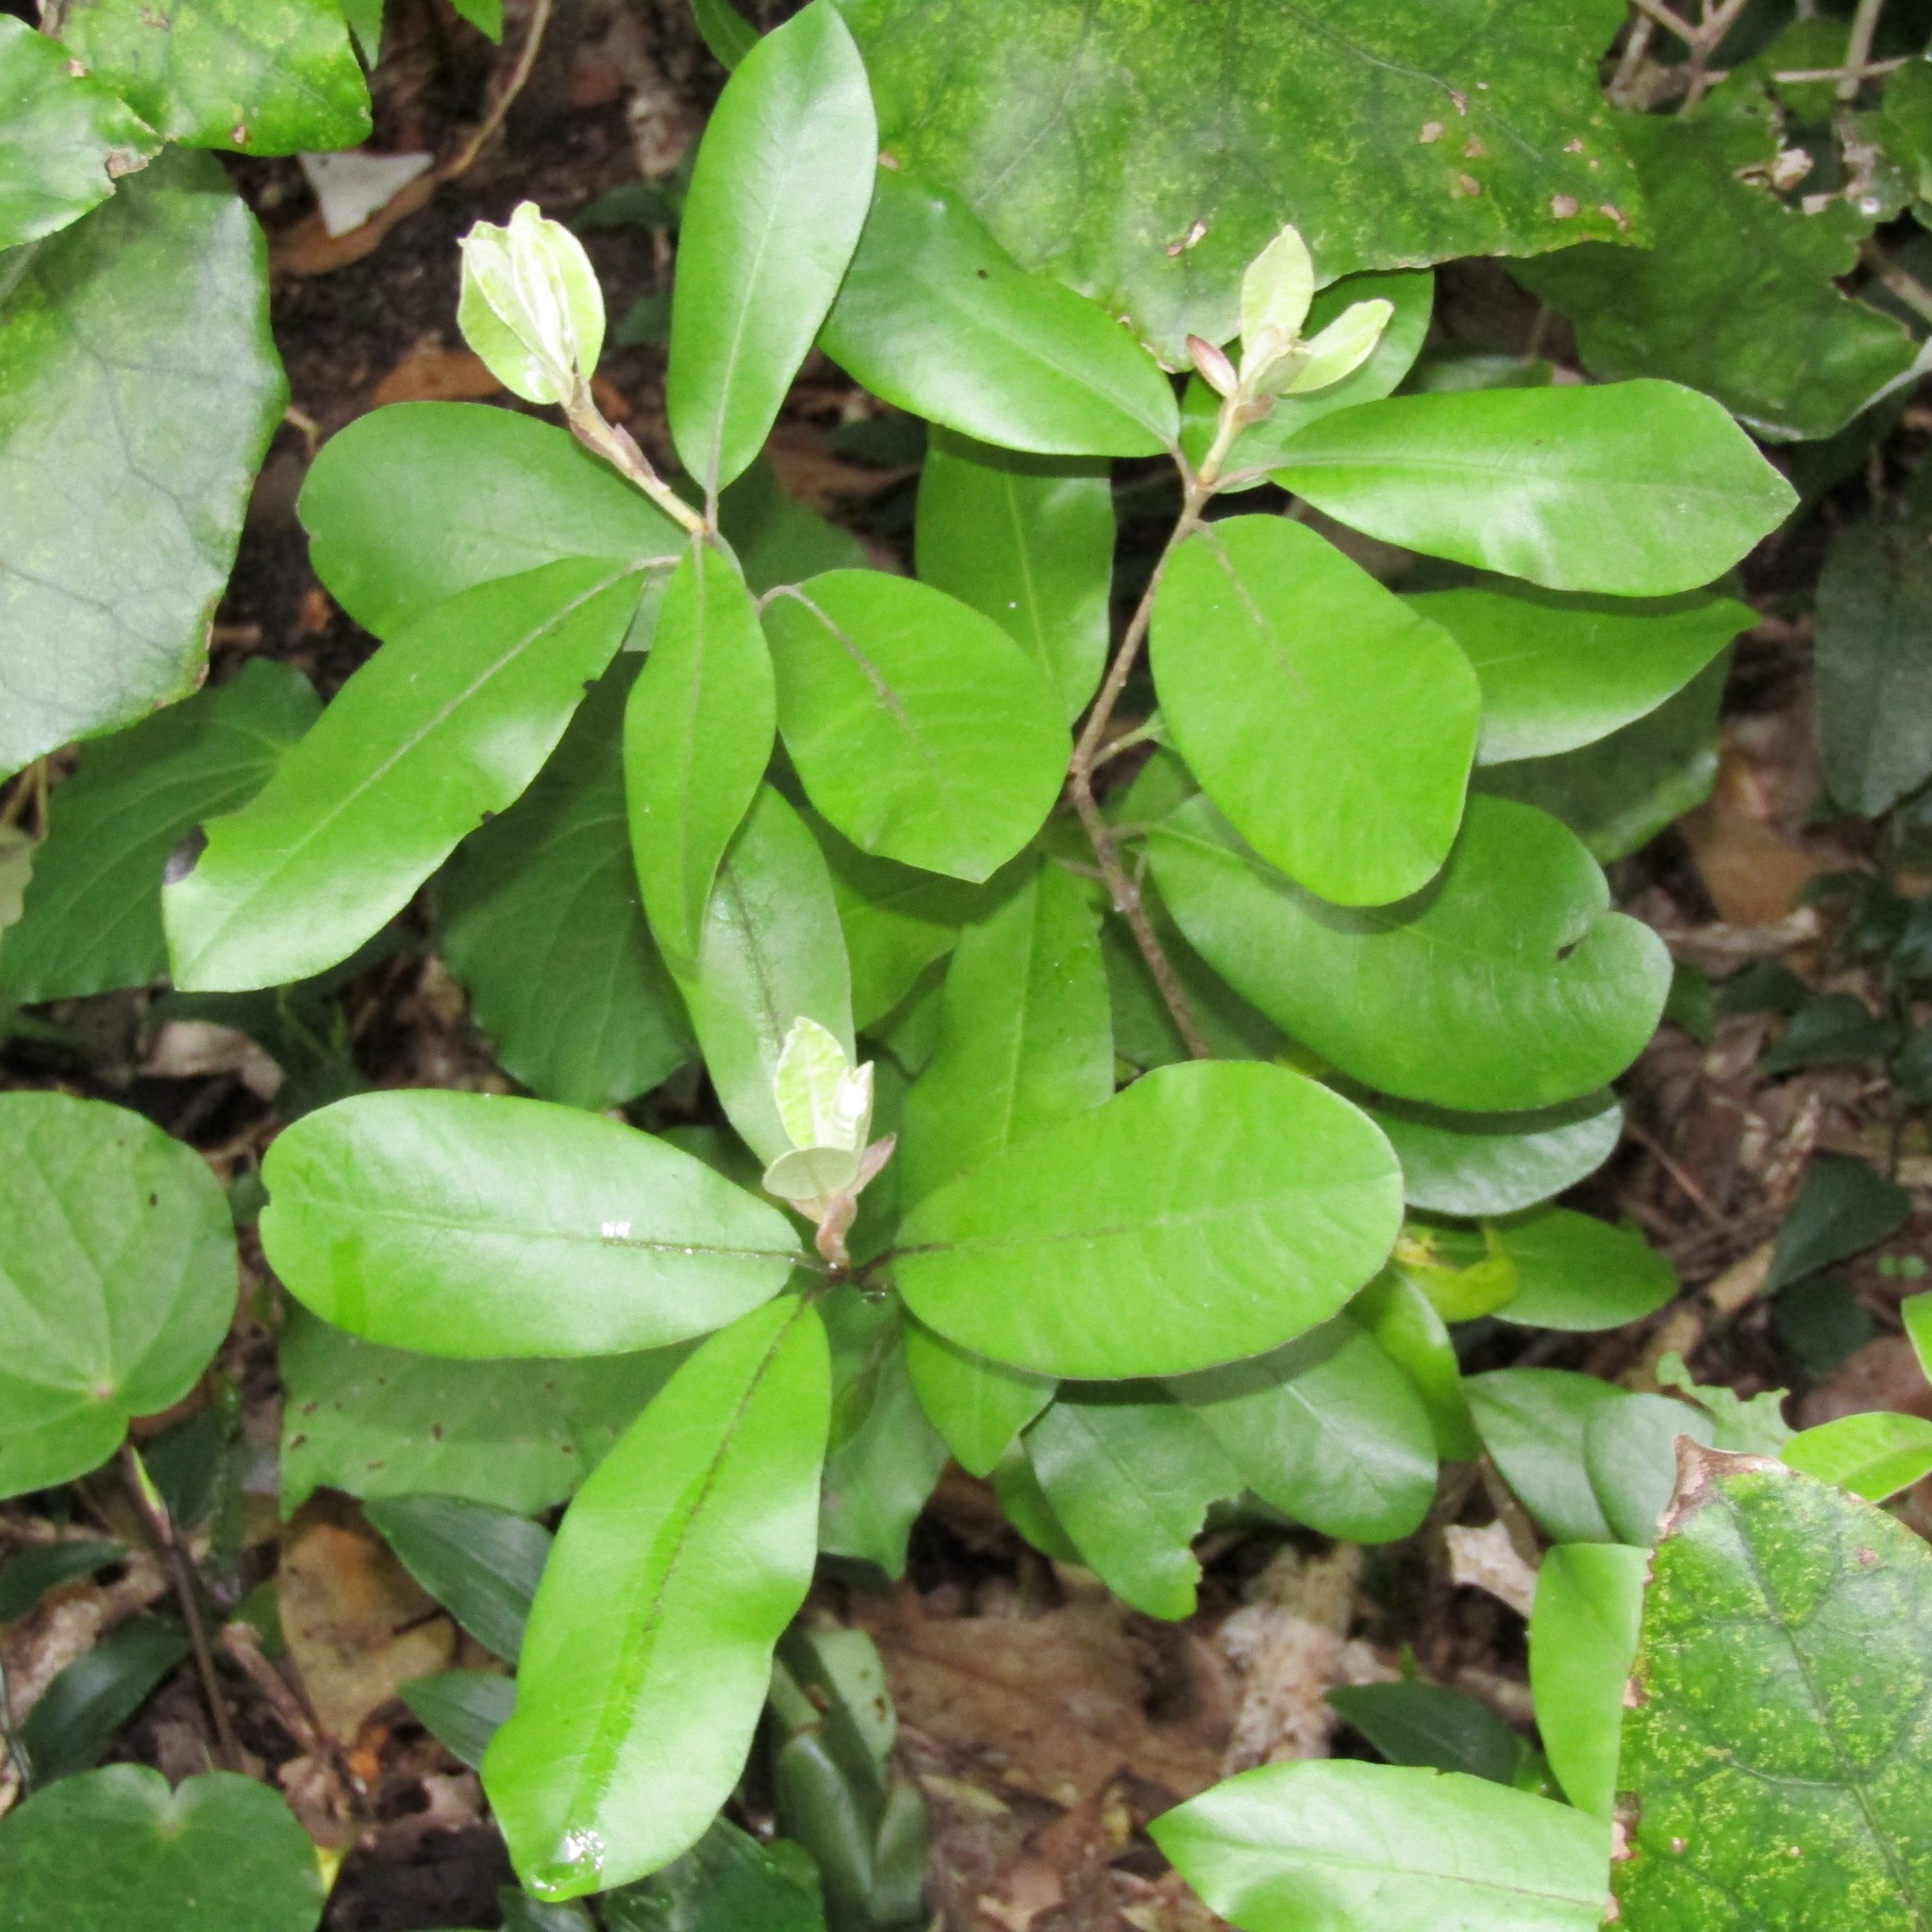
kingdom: Plantae
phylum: Tracheophyta
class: Magnoliopsida
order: Apiales
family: Pittosporaceae
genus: Pittosporum
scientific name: Pittosporum ralphii
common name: Ralph's desertwillow
